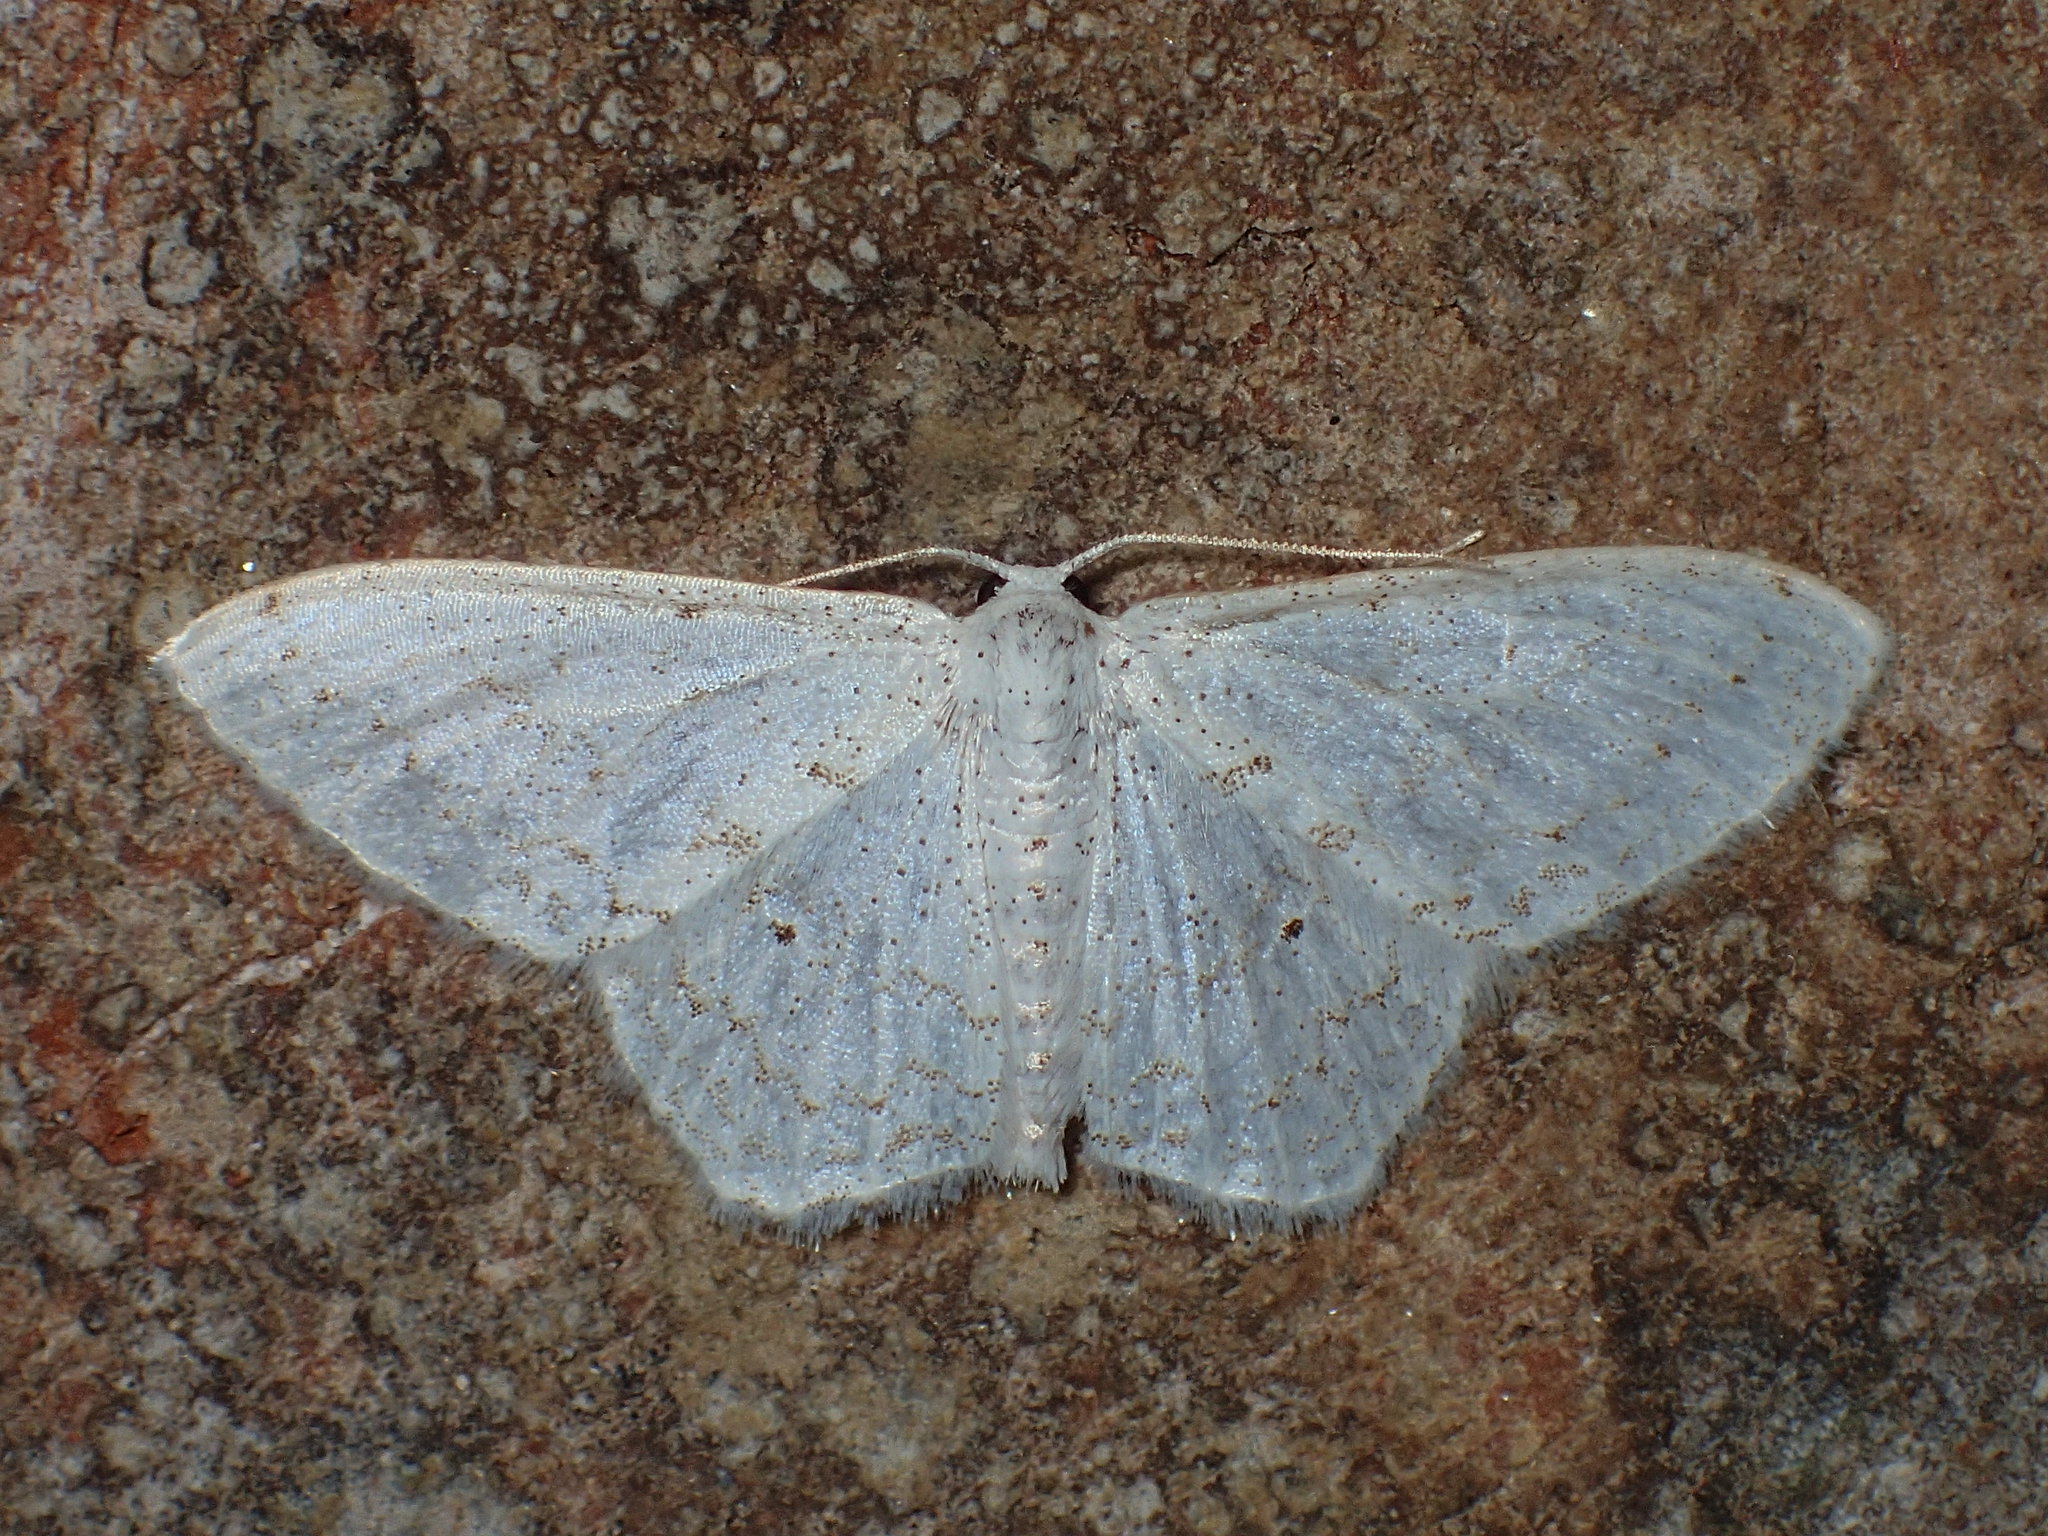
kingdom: Animalia
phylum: Arthropoda
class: Insecta
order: Lepidoptera
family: Geometridae
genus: Idaea
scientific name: Idaea tacturata
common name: Dot-lined wave
